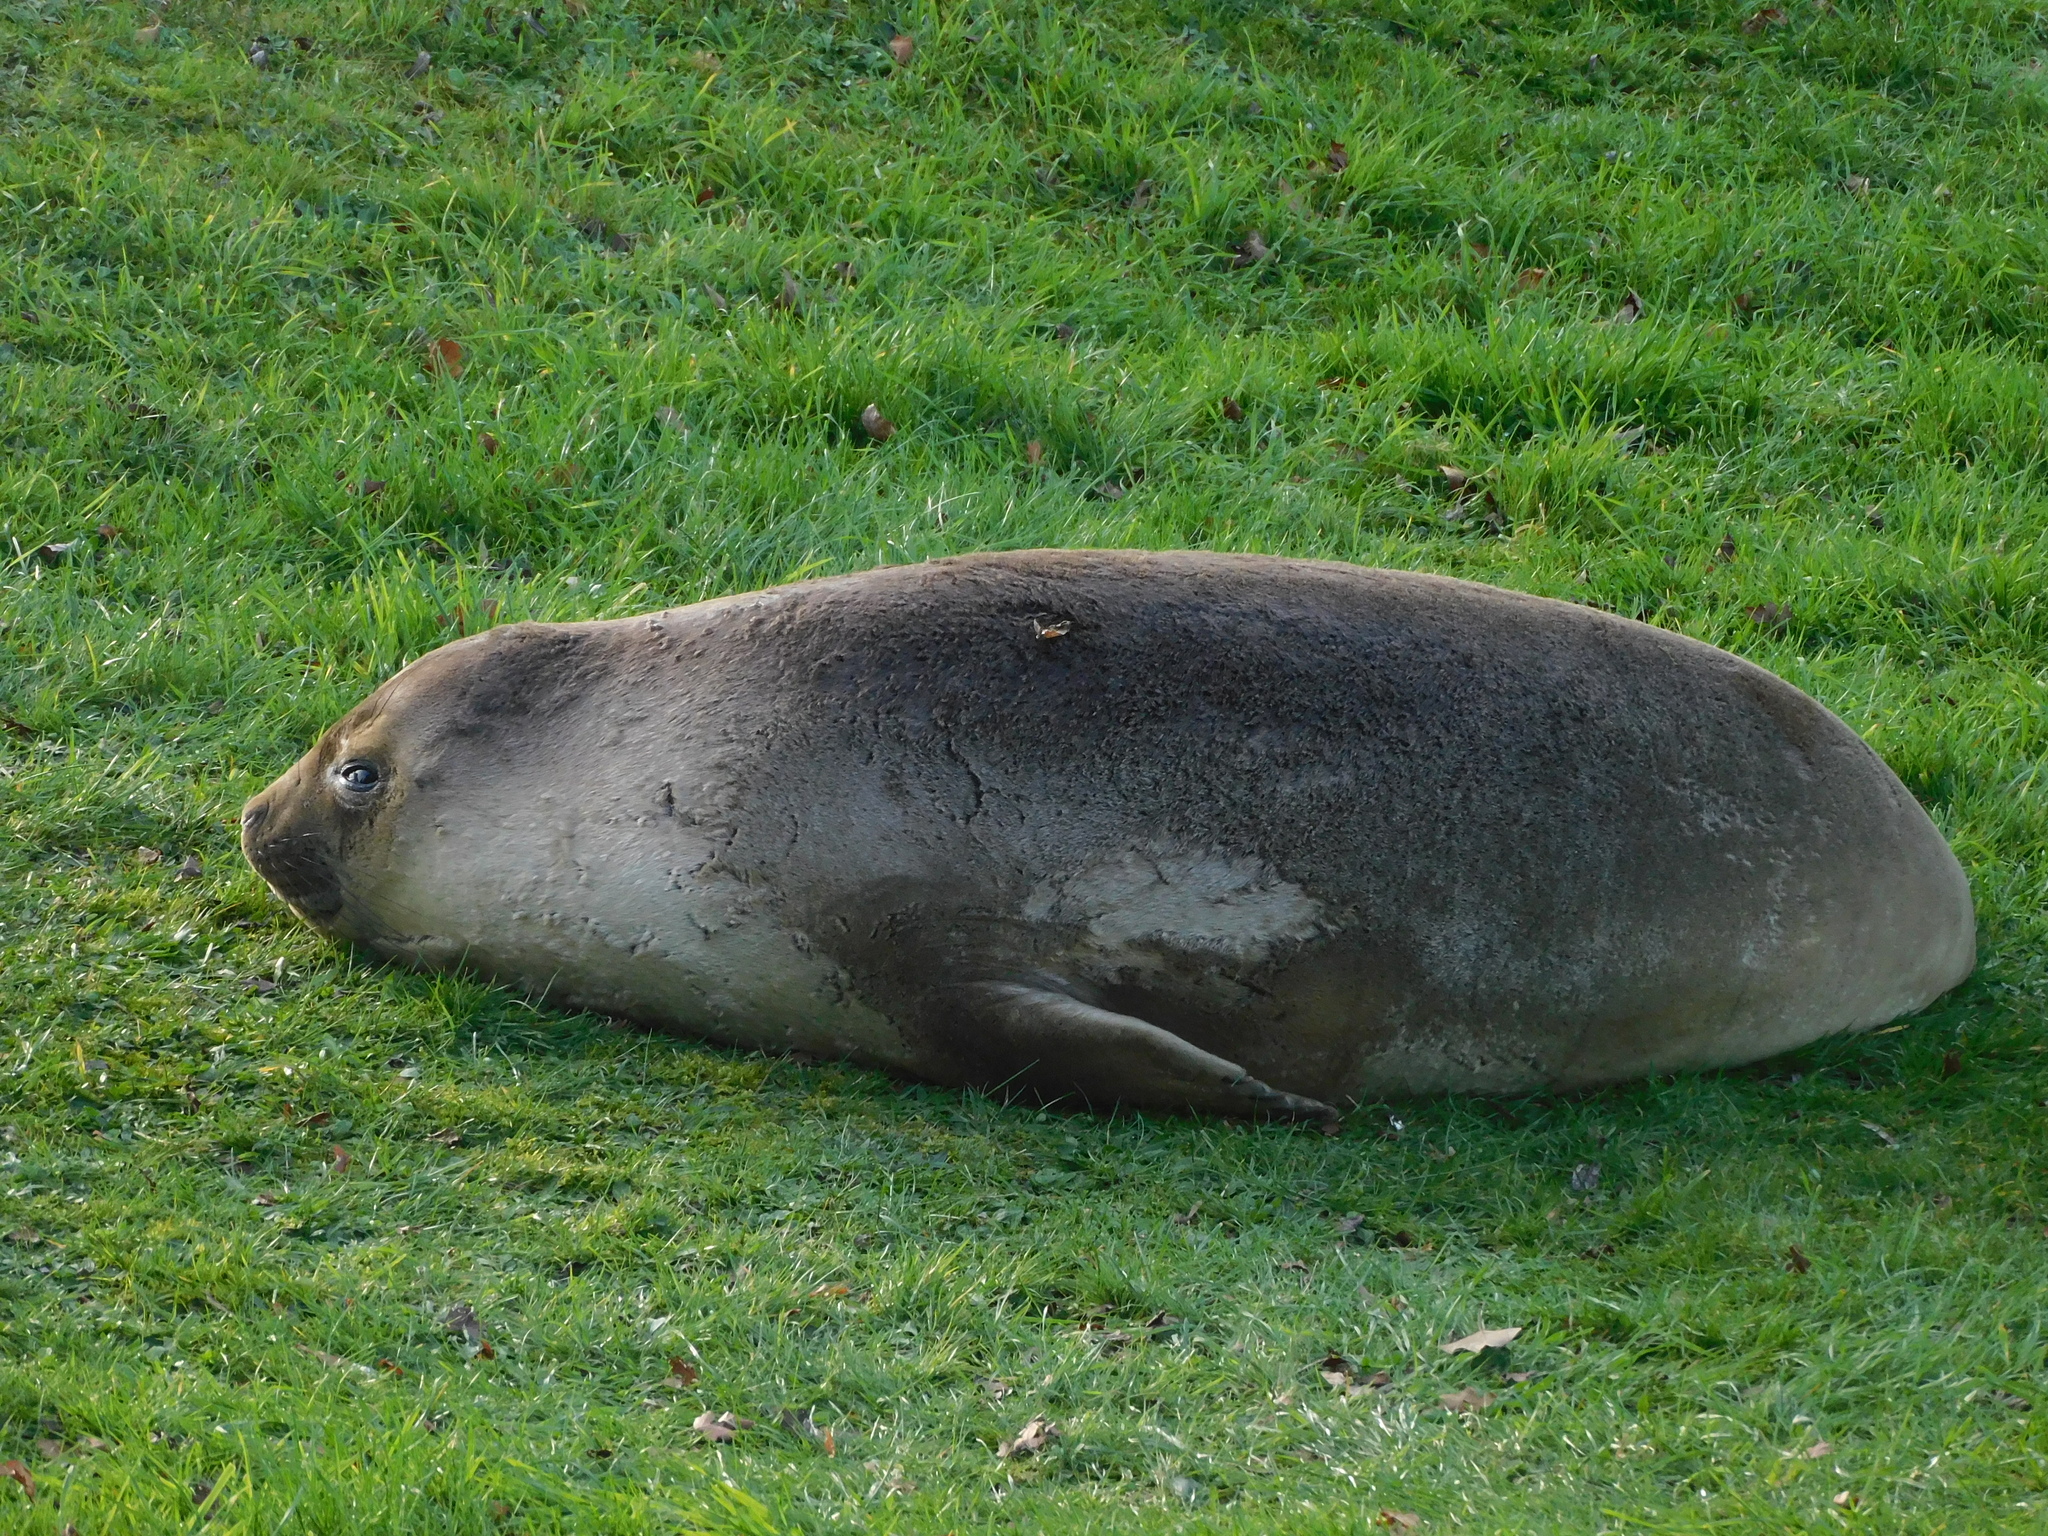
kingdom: Animalia
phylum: Chordata
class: Mammalia
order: Carnivora
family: Phocidae
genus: Mirounga
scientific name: Mirounga leonina
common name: Southern elephant seal
